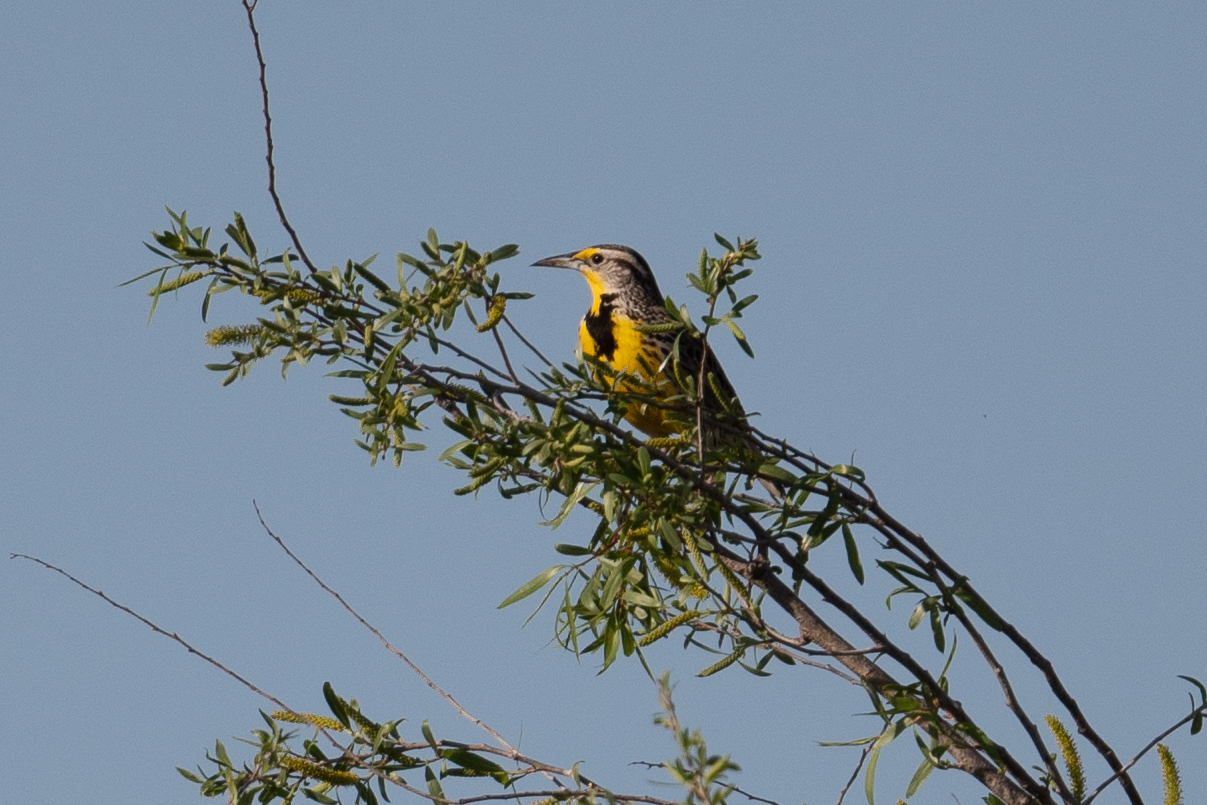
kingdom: Animalia
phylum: Chordata
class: Aves
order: Passeriformes
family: Icteridae
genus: Sturnella
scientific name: Sturnella neglecta
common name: Western meadowlark
